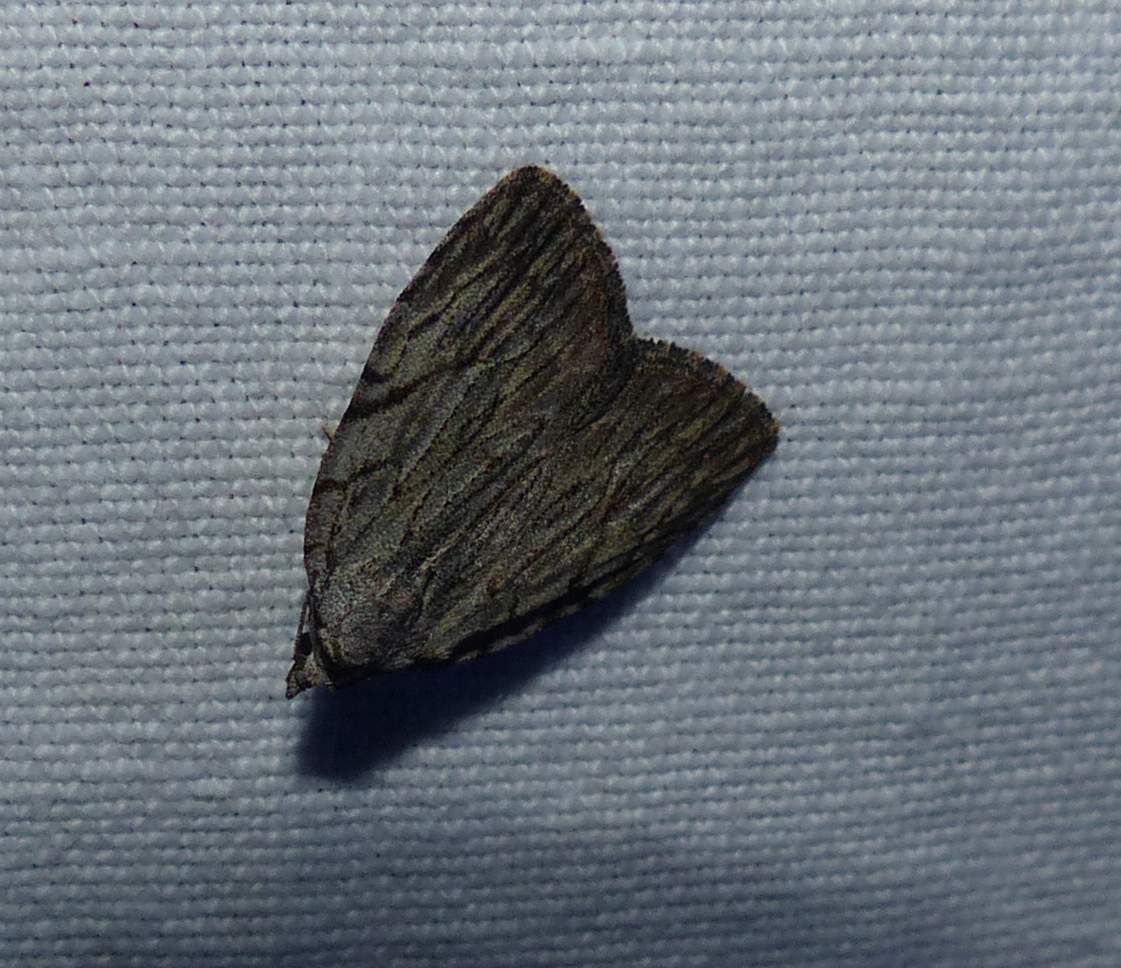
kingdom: Animalia
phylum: Arthropoda
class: Insecta
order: Lepidoptera
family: Noctuidae
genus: Balsa
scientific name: Balsa tristrigella
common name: Three-lined balsa moth
